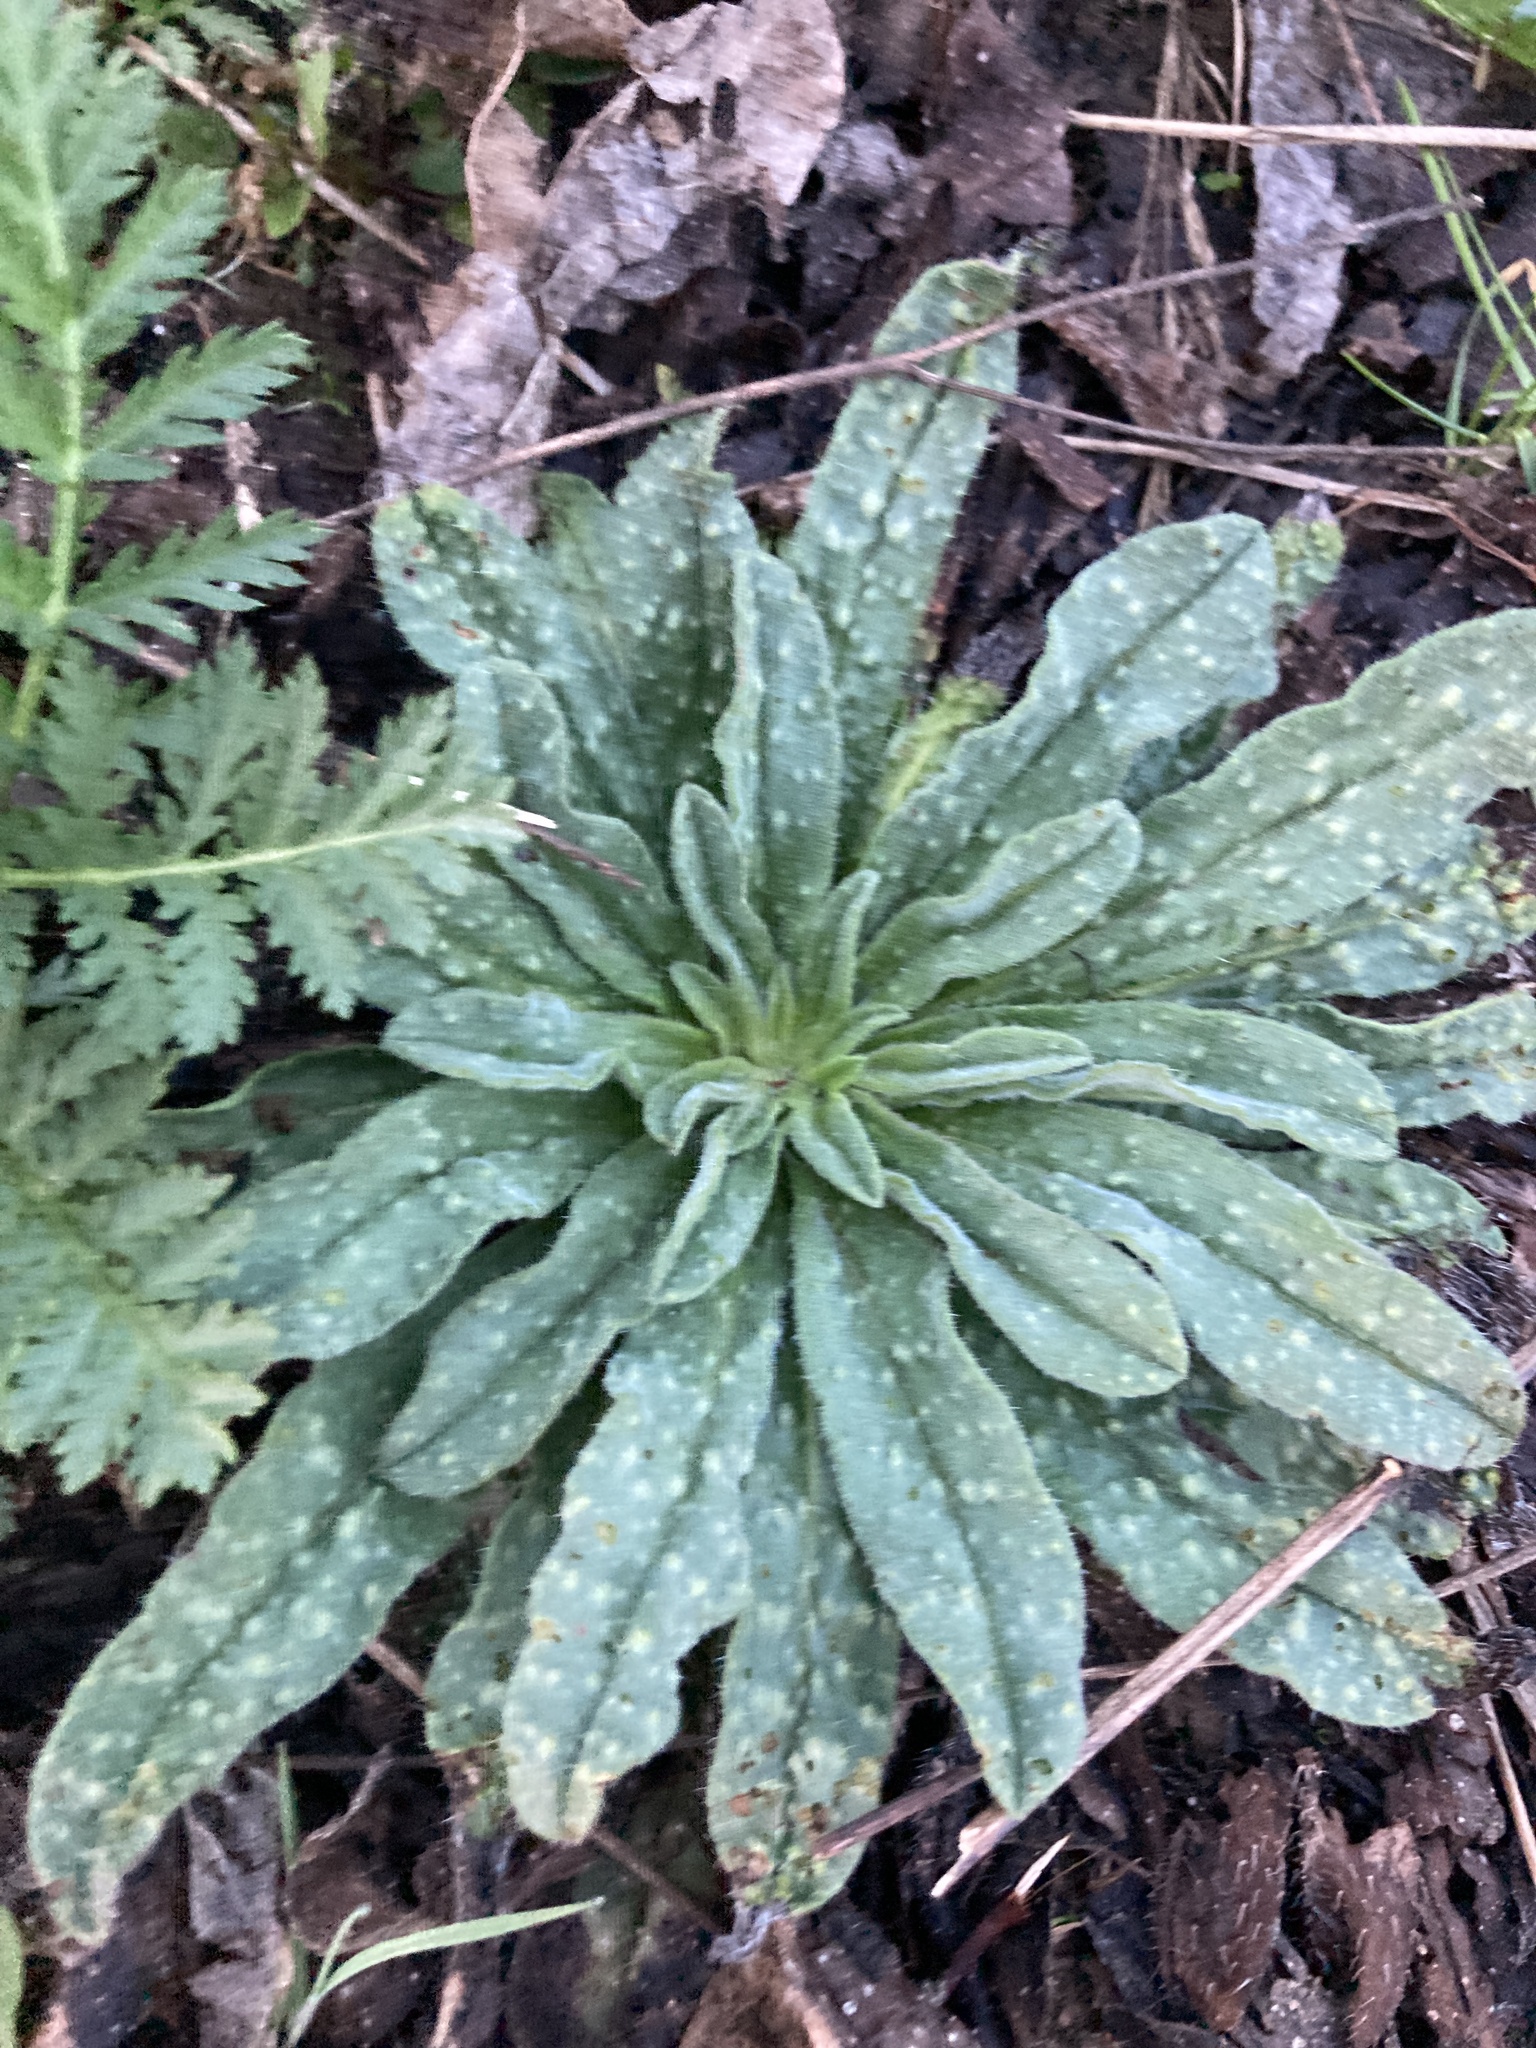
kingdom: Plantae
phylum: Tracheophyta
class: Magnoliopsida
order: Boraginales
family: Boraginaceae
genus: Echium
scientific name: Echium vulgare
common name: Common viper's bugloss
